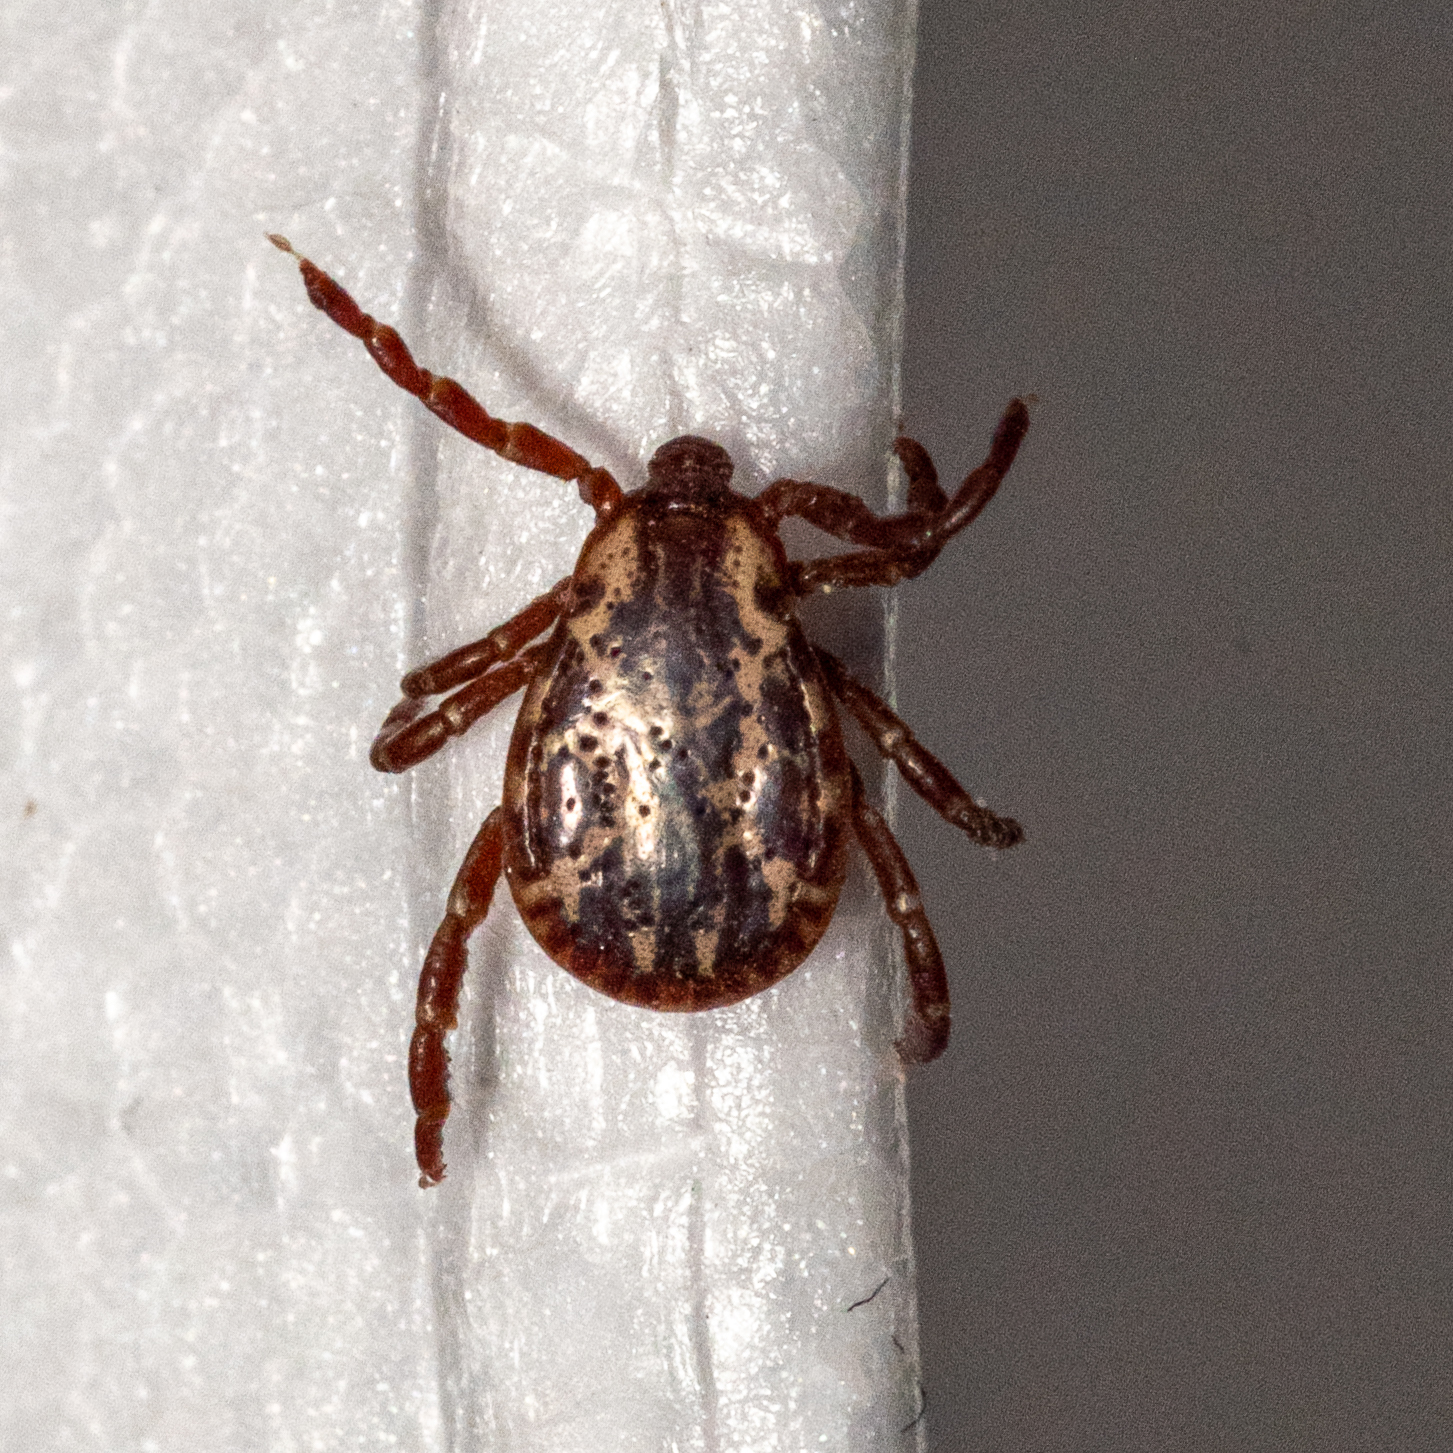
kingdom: Animalia
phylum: Arthropoda
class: Arachnida
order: Ixodida
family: Ixodidae
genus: Dermacentor
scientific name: Dermacentor variabilis
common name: American dog tick
